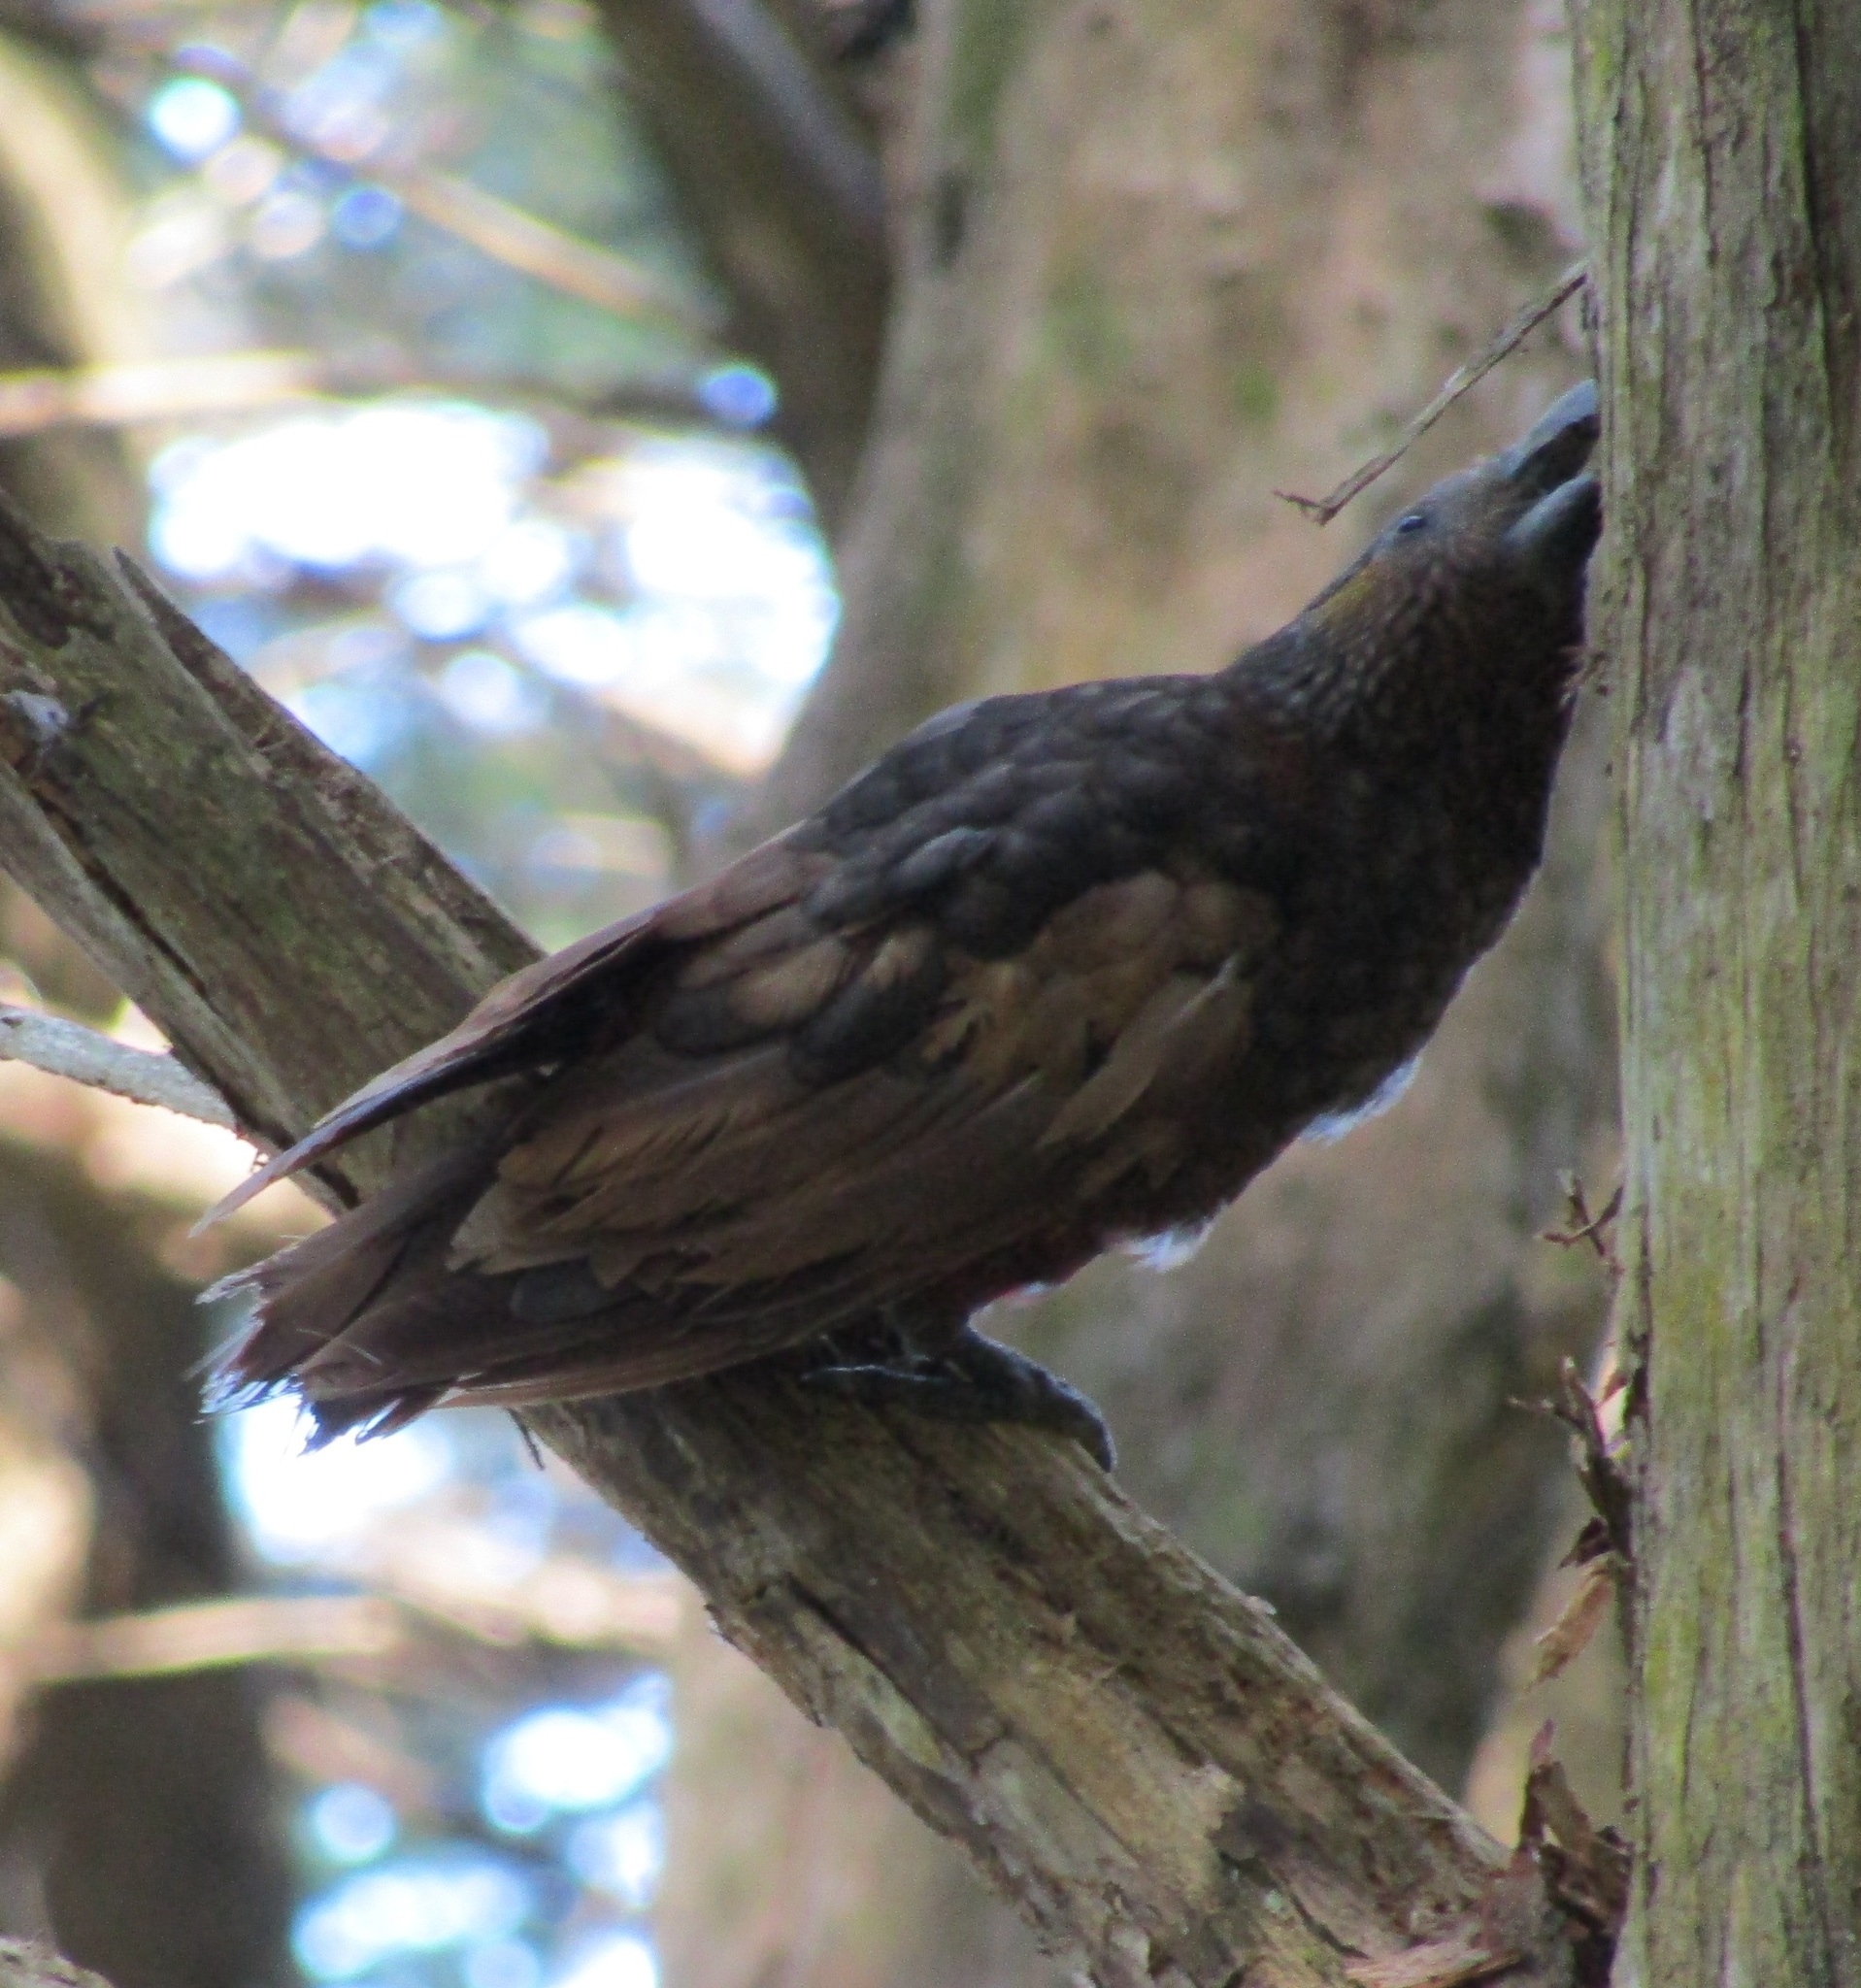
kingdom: Animalia
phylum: Chordata
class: Aves
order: Psittaciformes
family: Psittacidae
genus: Nestor
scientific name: Nestor meridionalis
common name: New zealand kaka
